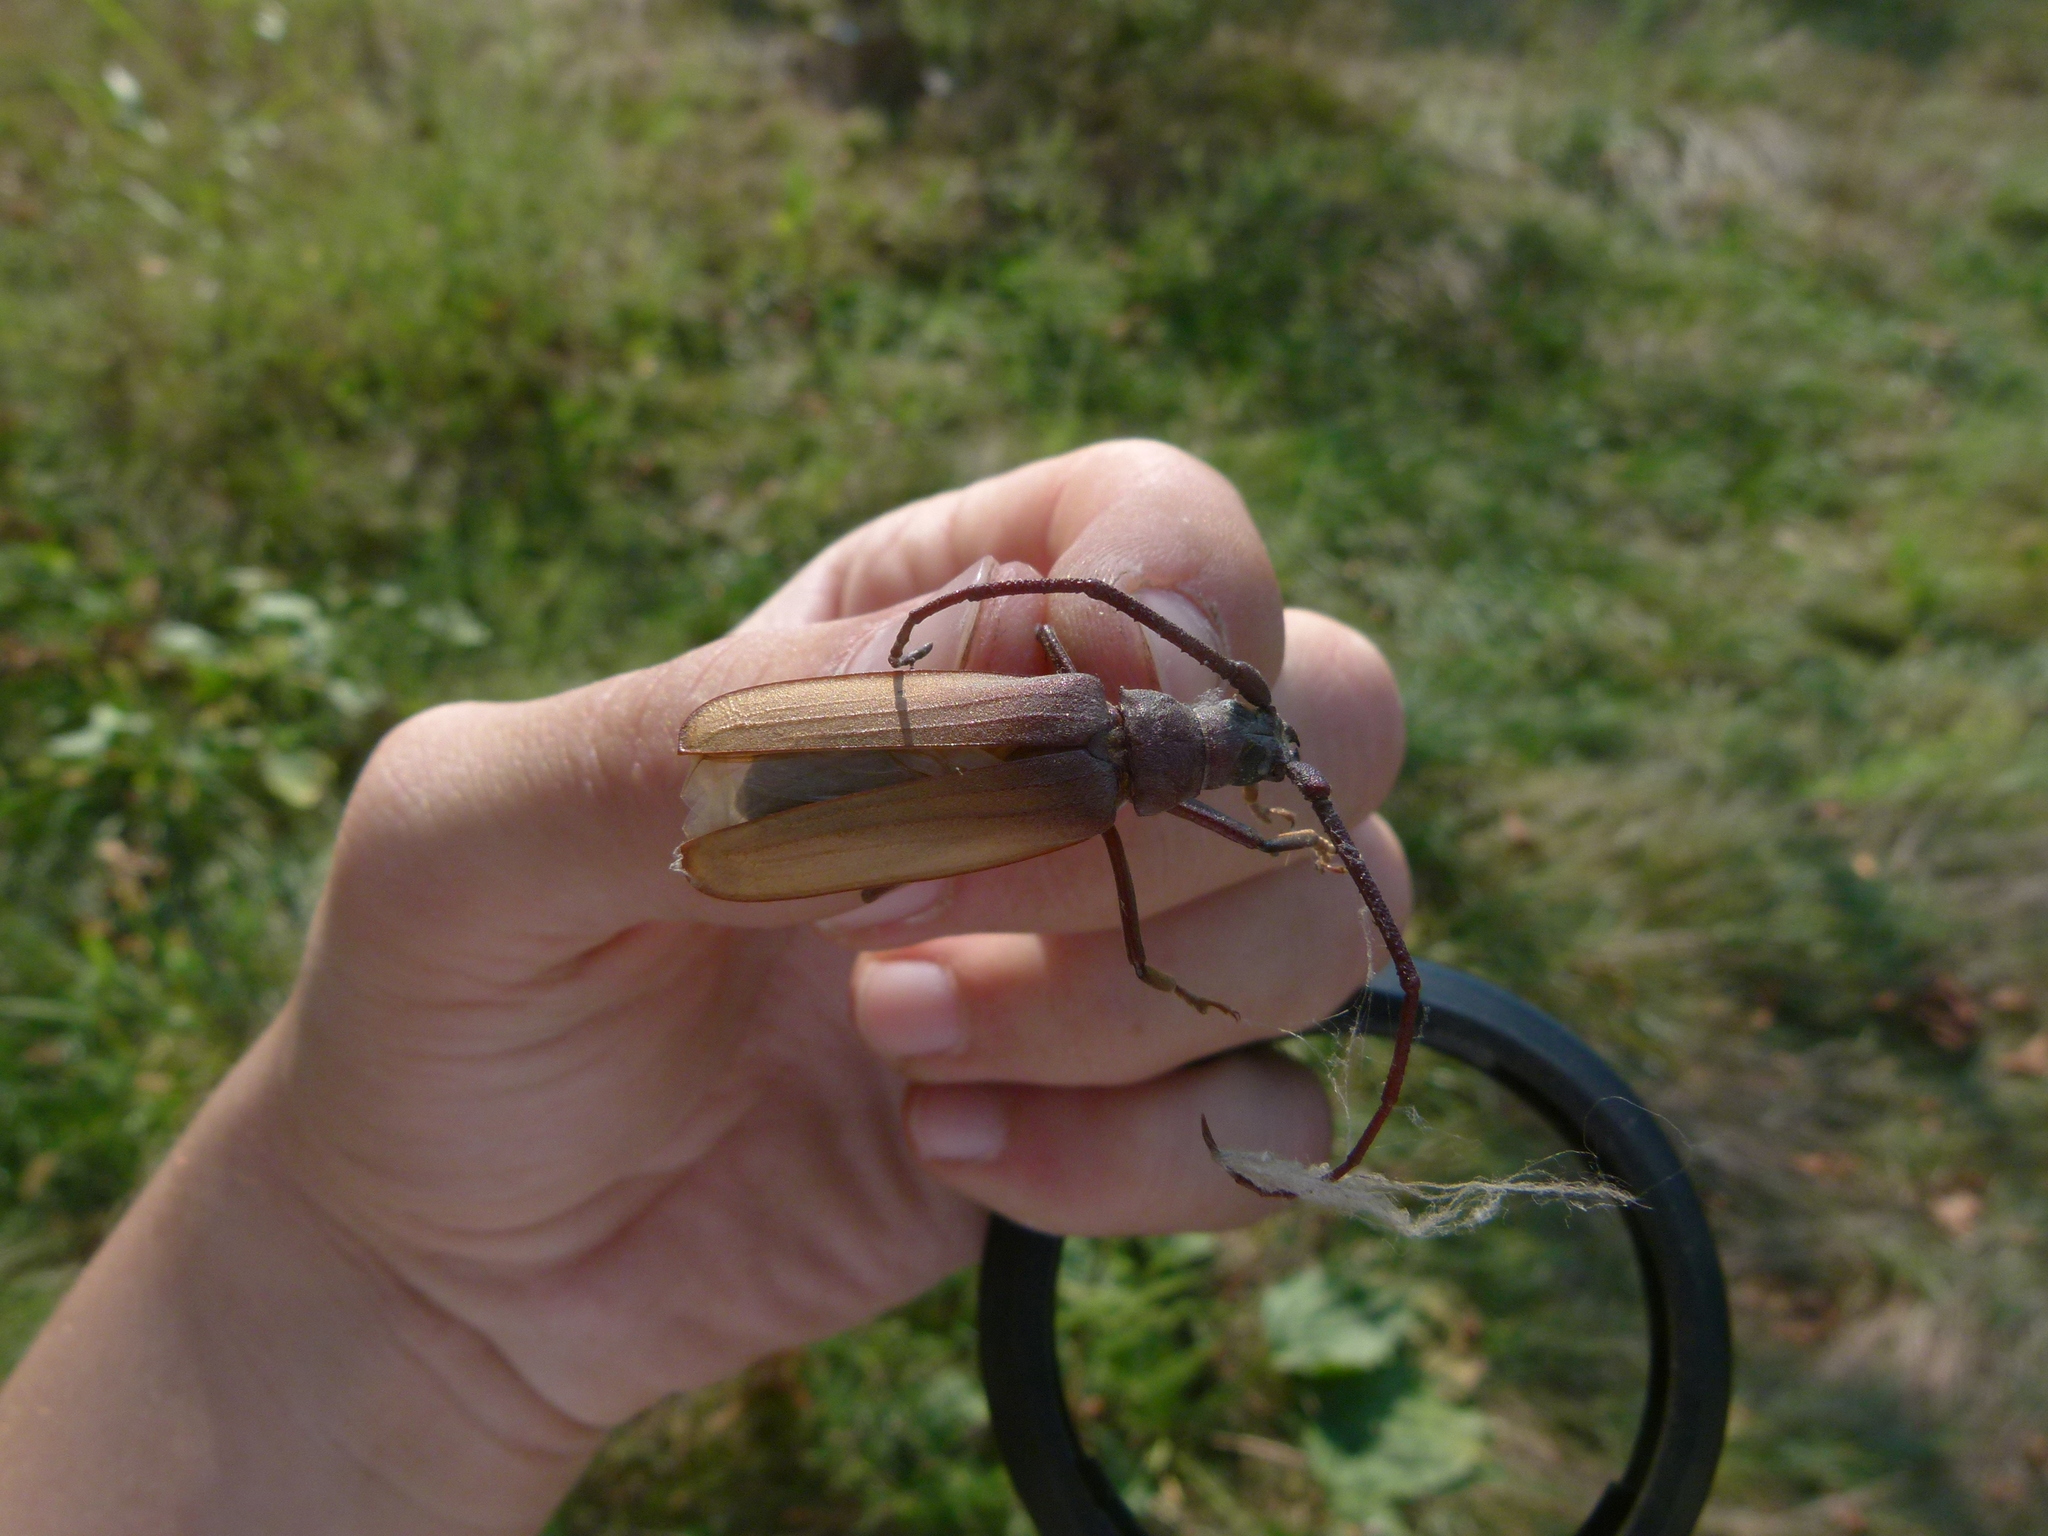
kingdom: Animalia
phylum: Arthropoda
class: Insecta
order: Coleoptera
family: Cerambycidae
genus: Aegosoma
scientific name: Aegosoma scabricorne
